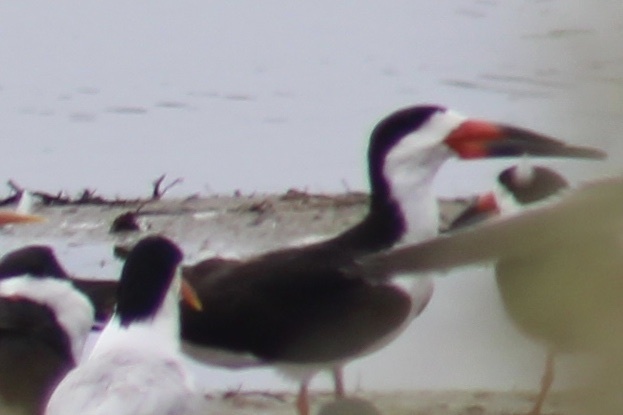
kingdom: Animalia
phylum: Chordata
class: Aves
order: Charadriiformes
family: Laridae
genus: Rynchops
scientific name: Rynchops niger
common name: Black skimmer
